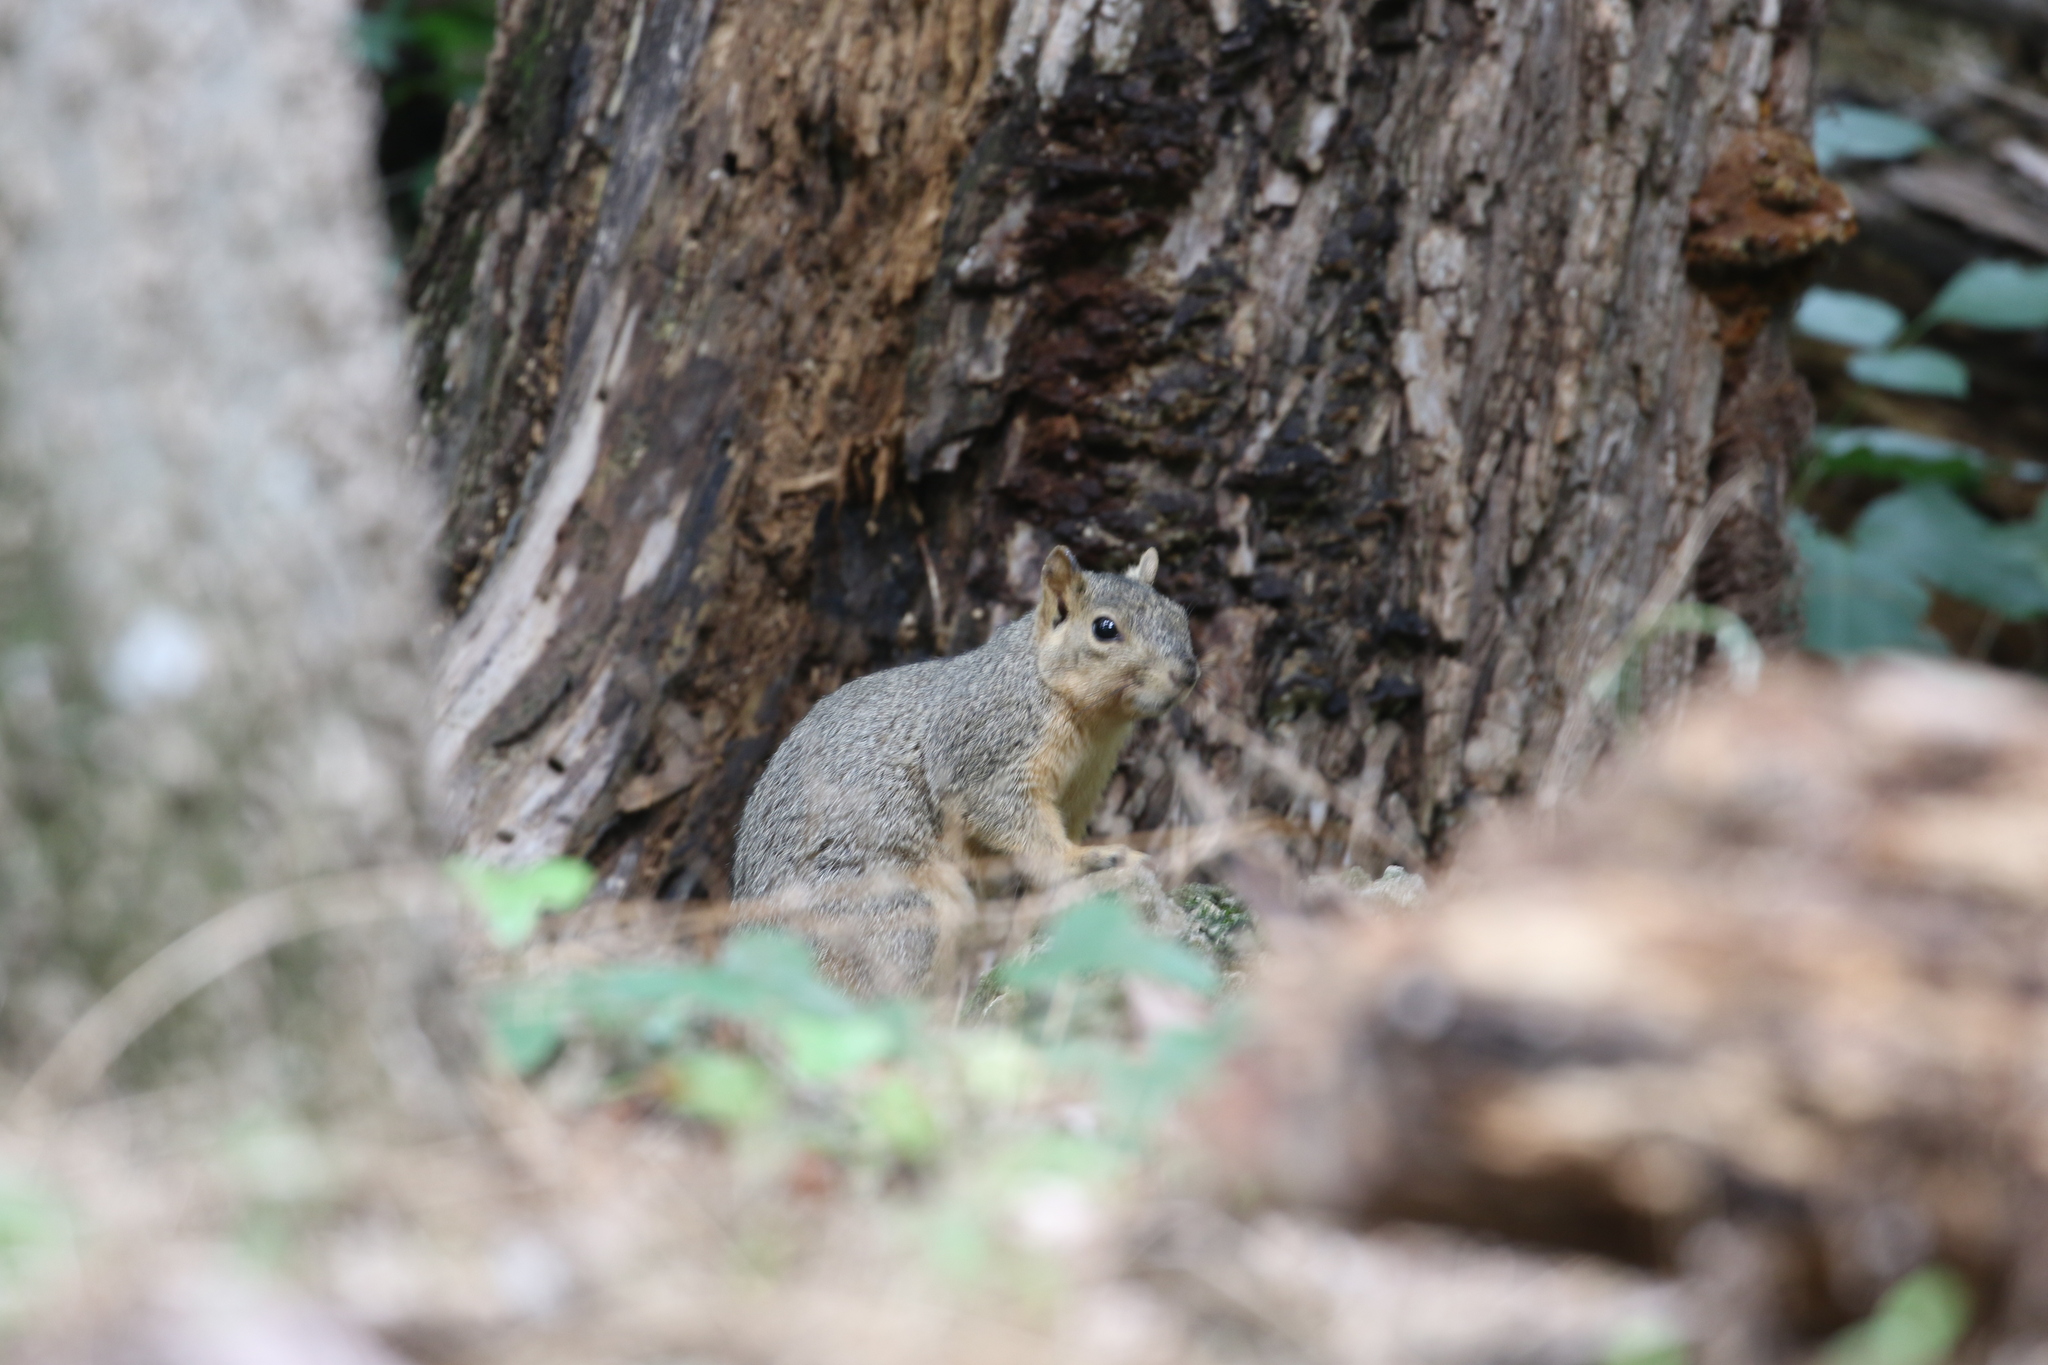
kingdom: Animalia
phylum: Chordata
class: Mammalia
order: Rodentia
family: Sciuridae
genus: Sciurus
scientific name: Sciurus niger
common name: Fox squirrel
